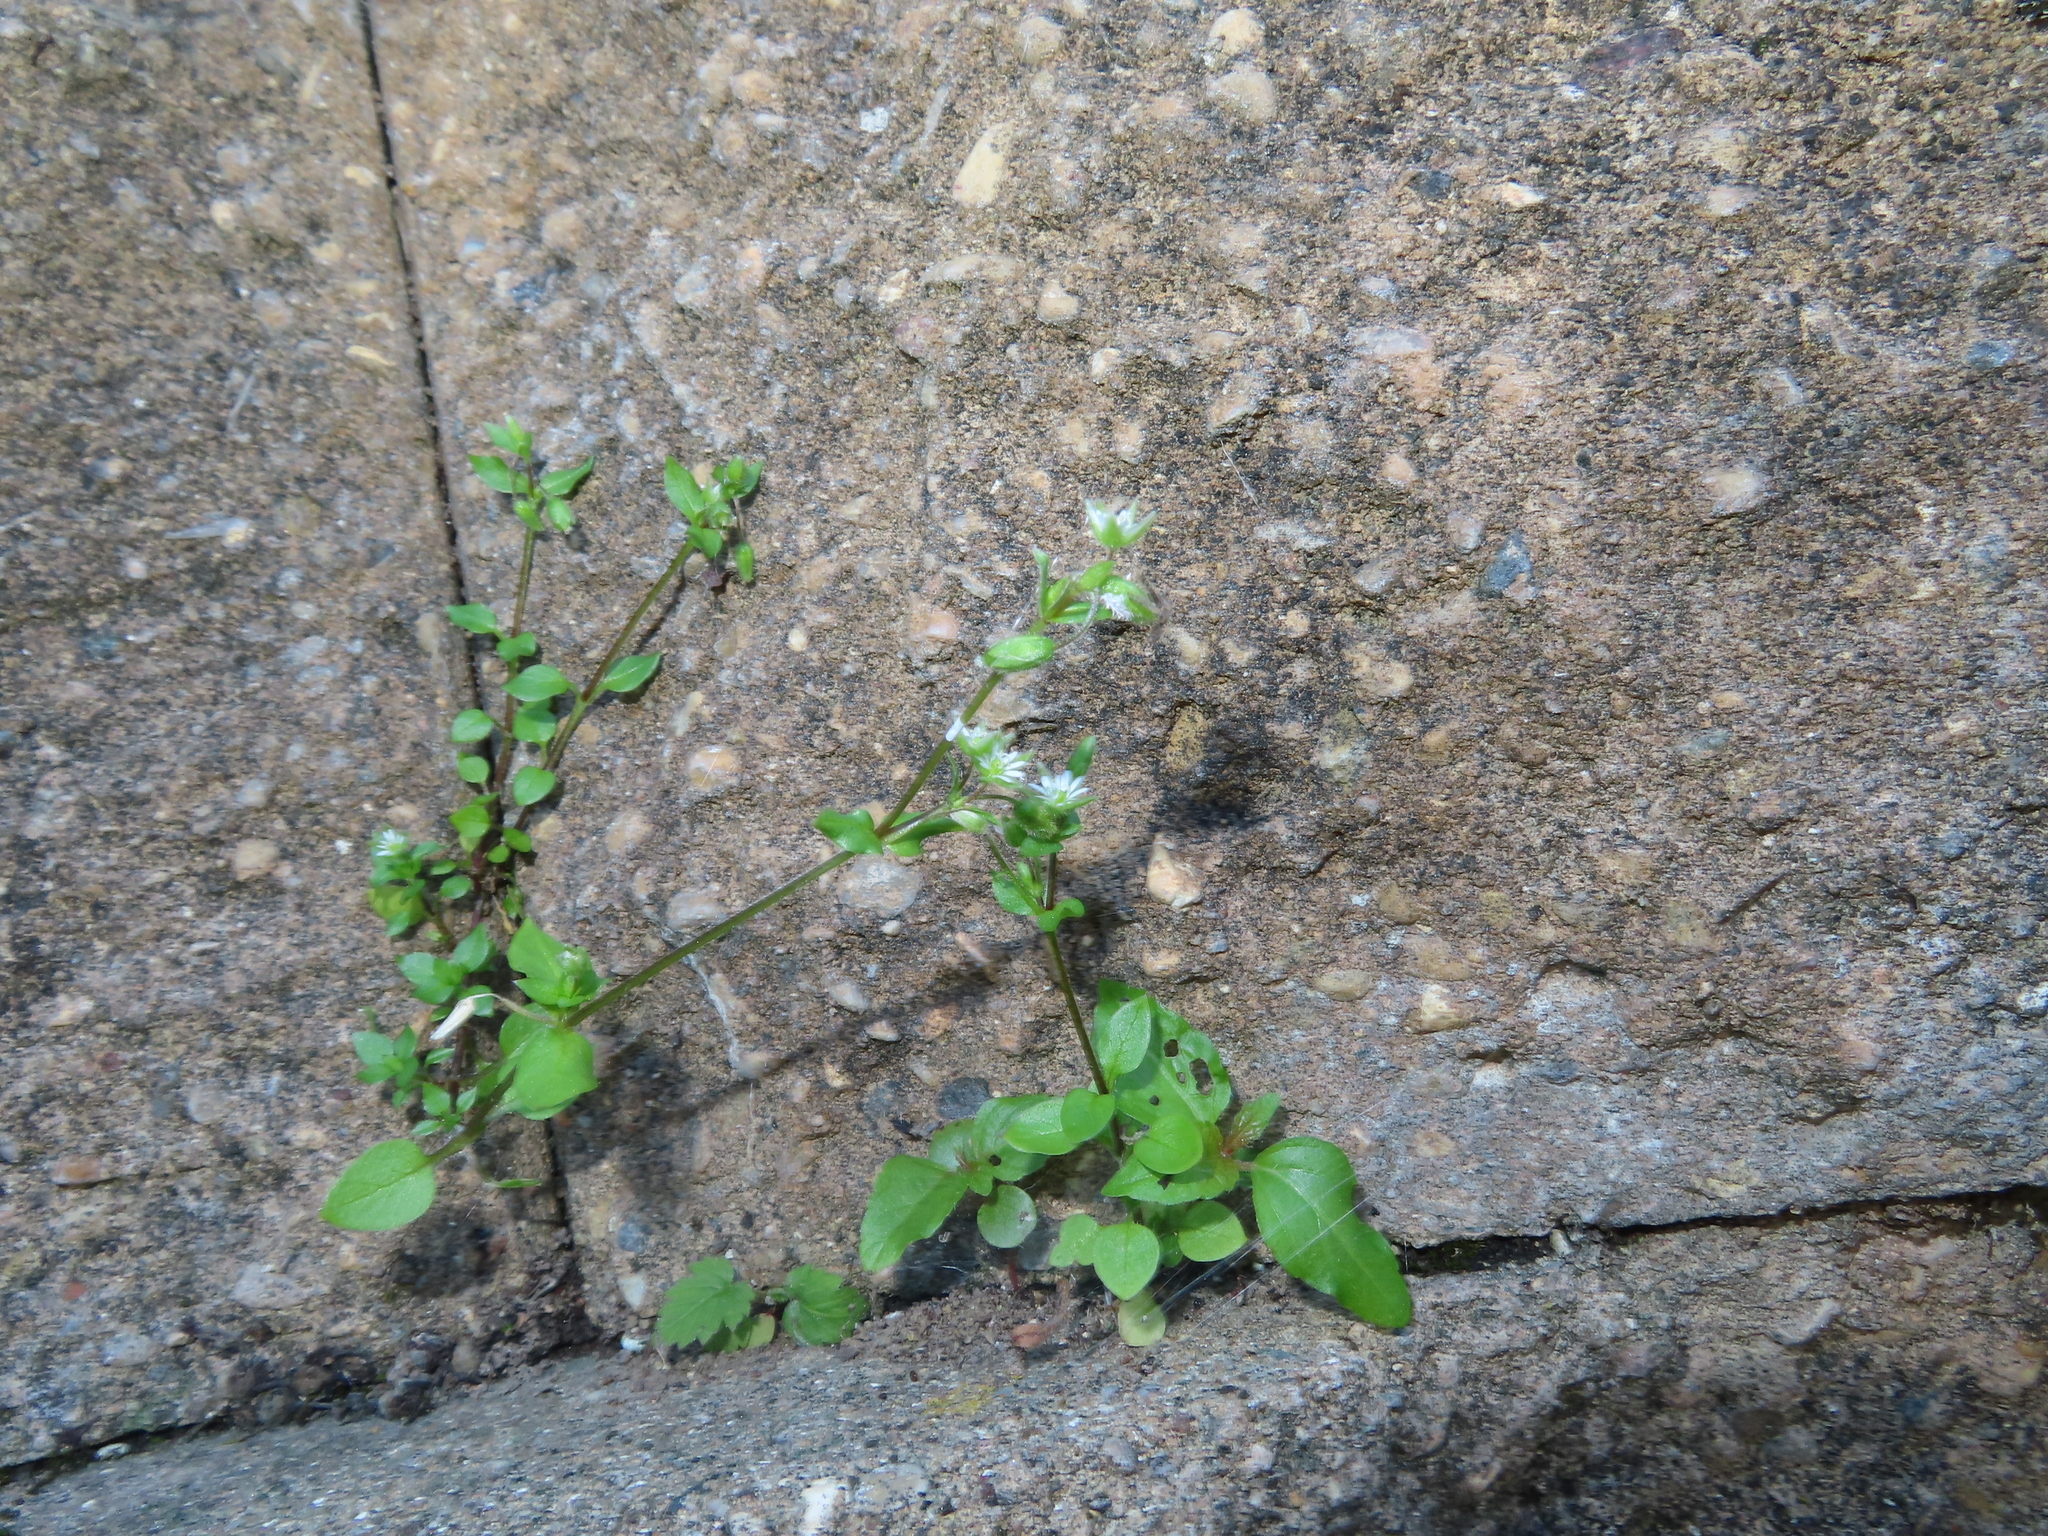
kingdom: Plantae
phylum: Tracheophyta
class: Magnoliopsida
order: Caryophyllales
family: Caryophyllaceae
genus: Stellaria
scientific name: Stellaria media
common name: Common chickweed
